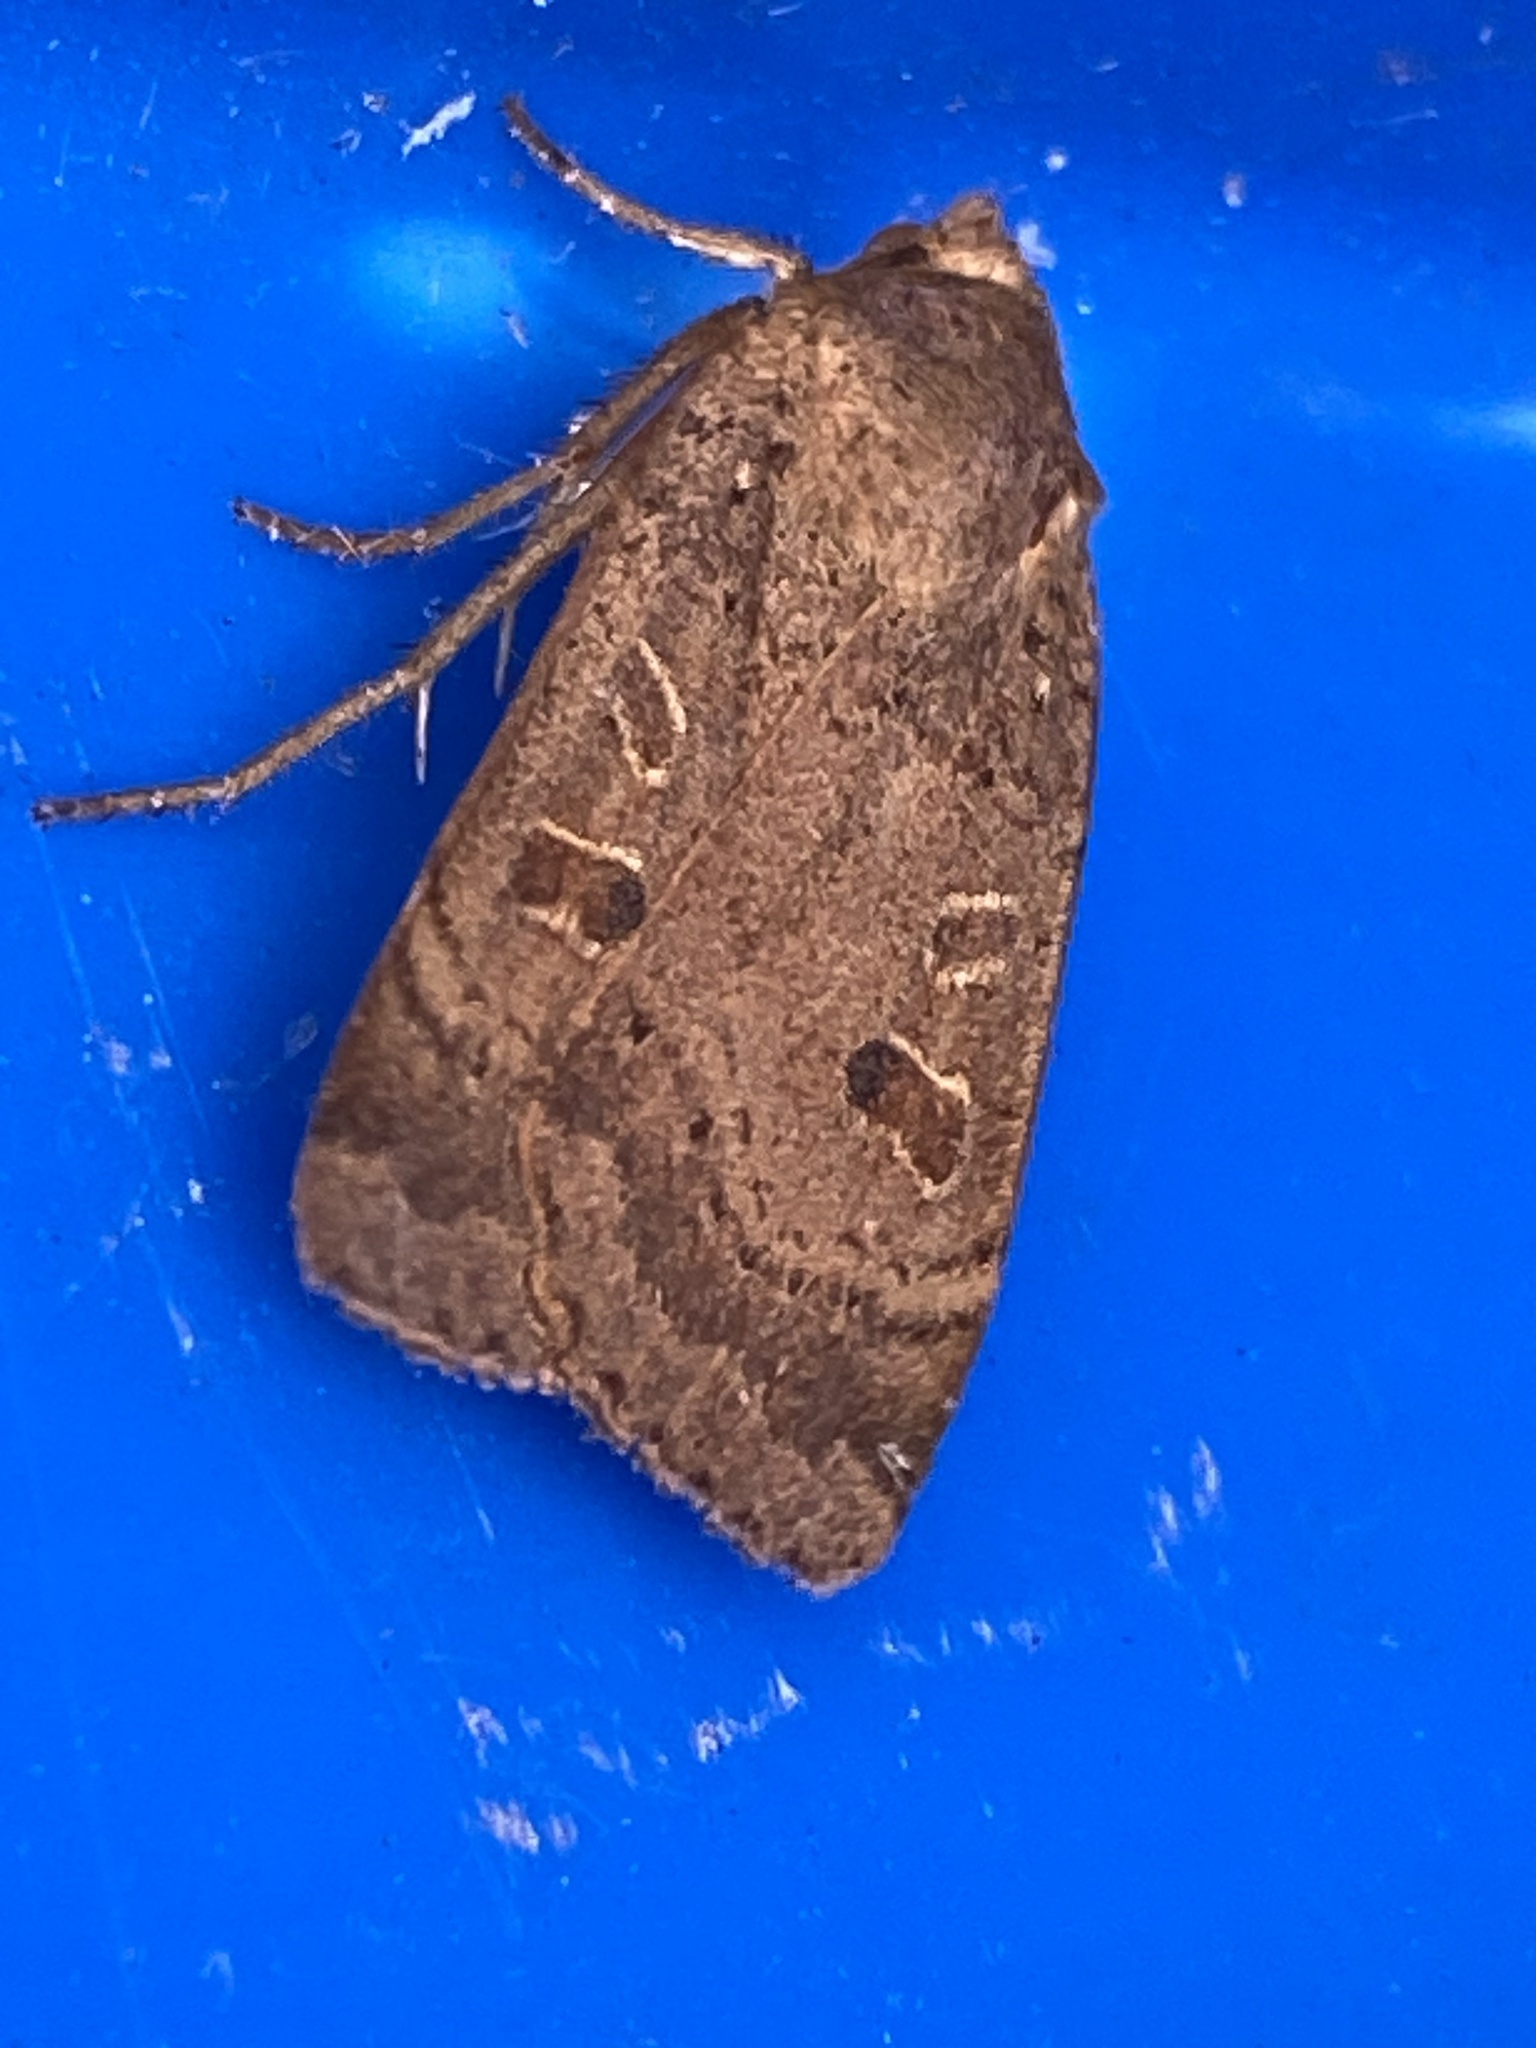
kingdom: Animalia
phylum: Arthropoda
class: Insecta
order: Lepidoptera
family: Noctuidae
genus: Noctua
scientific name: Noctua comes
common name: Lesser yellow underwing
